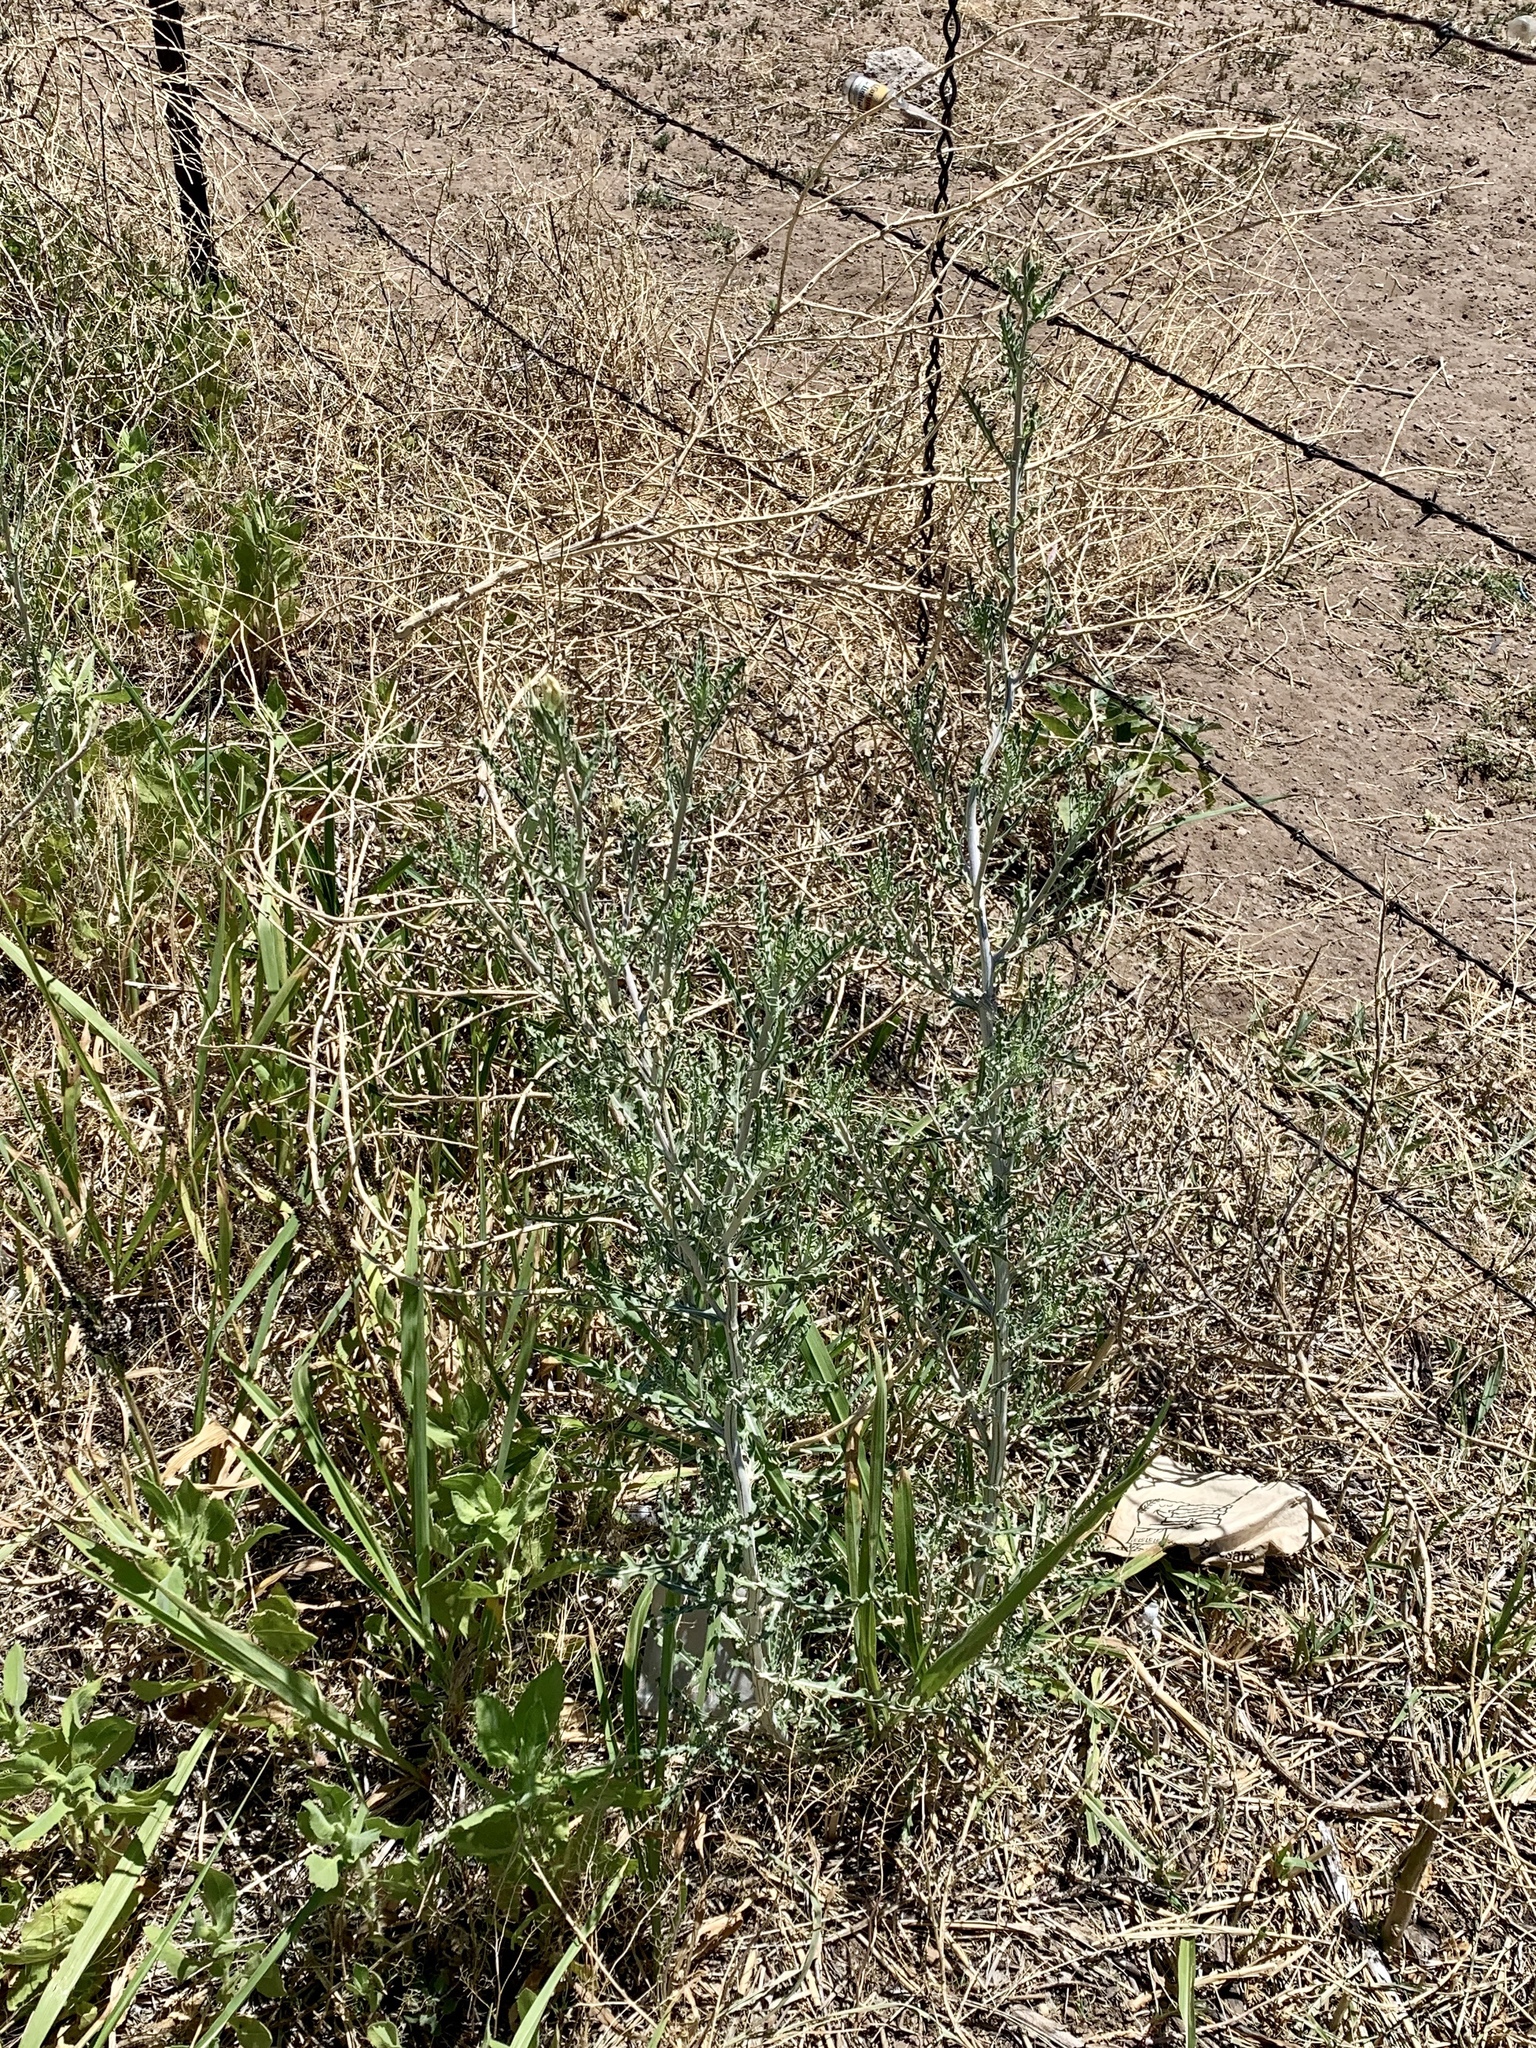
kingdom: Plantae
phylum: Tracheophyta
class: Magnoliopsida
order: Cornales
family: Loasaceae
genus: Mentzelia
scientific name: Mentzelia longiloba
